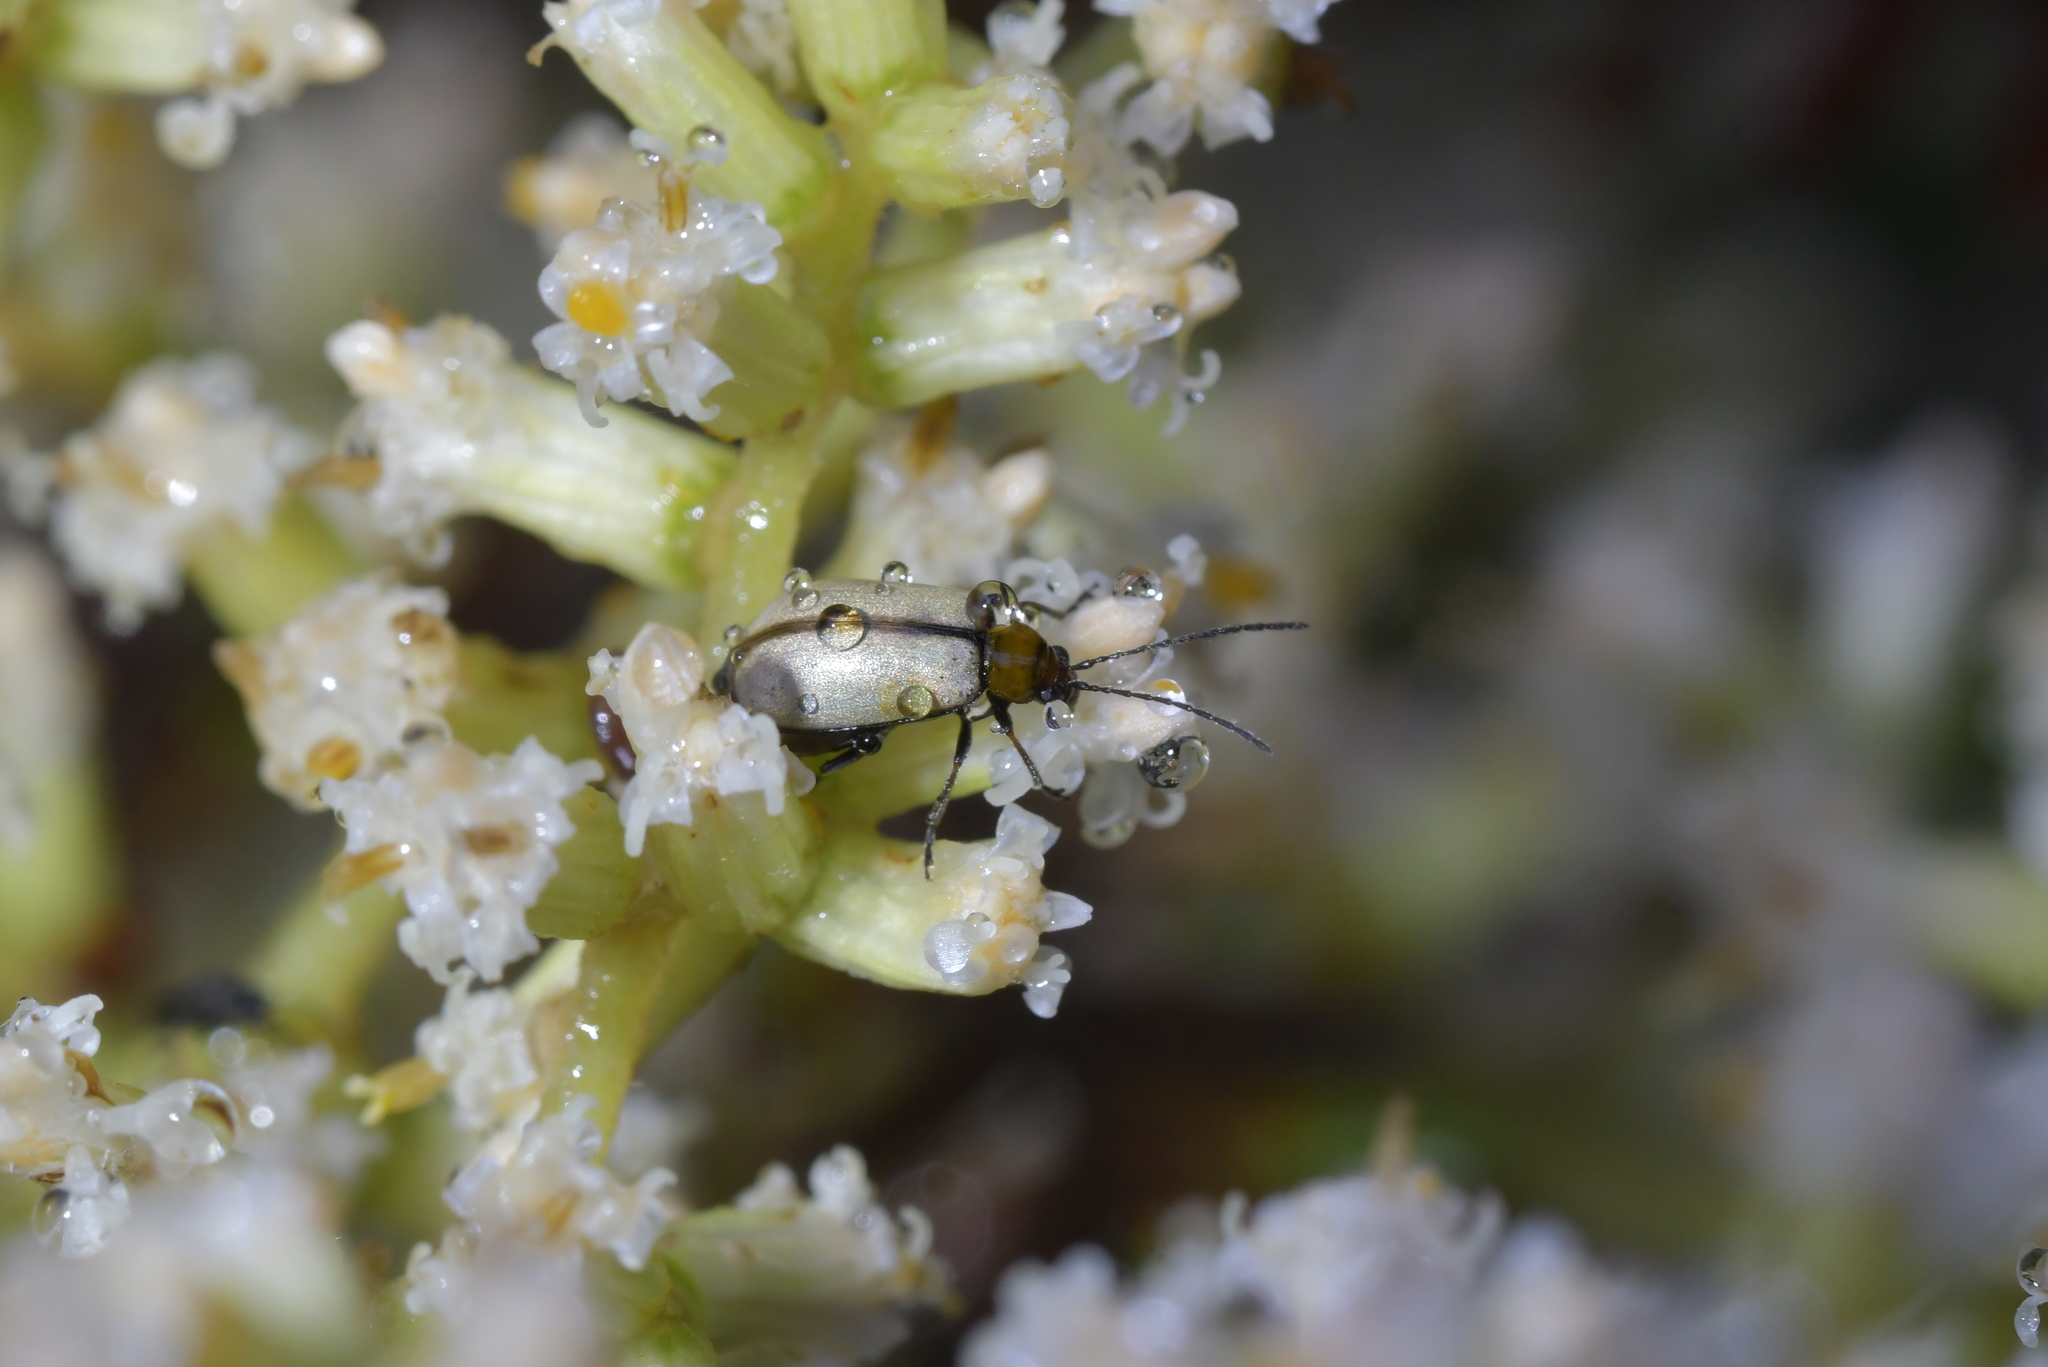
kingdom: Animalia
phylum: Arthropoda
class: Insecta
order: Coleoptera
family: Chrysomelidae
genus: Adoxia
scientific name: Adoxia
